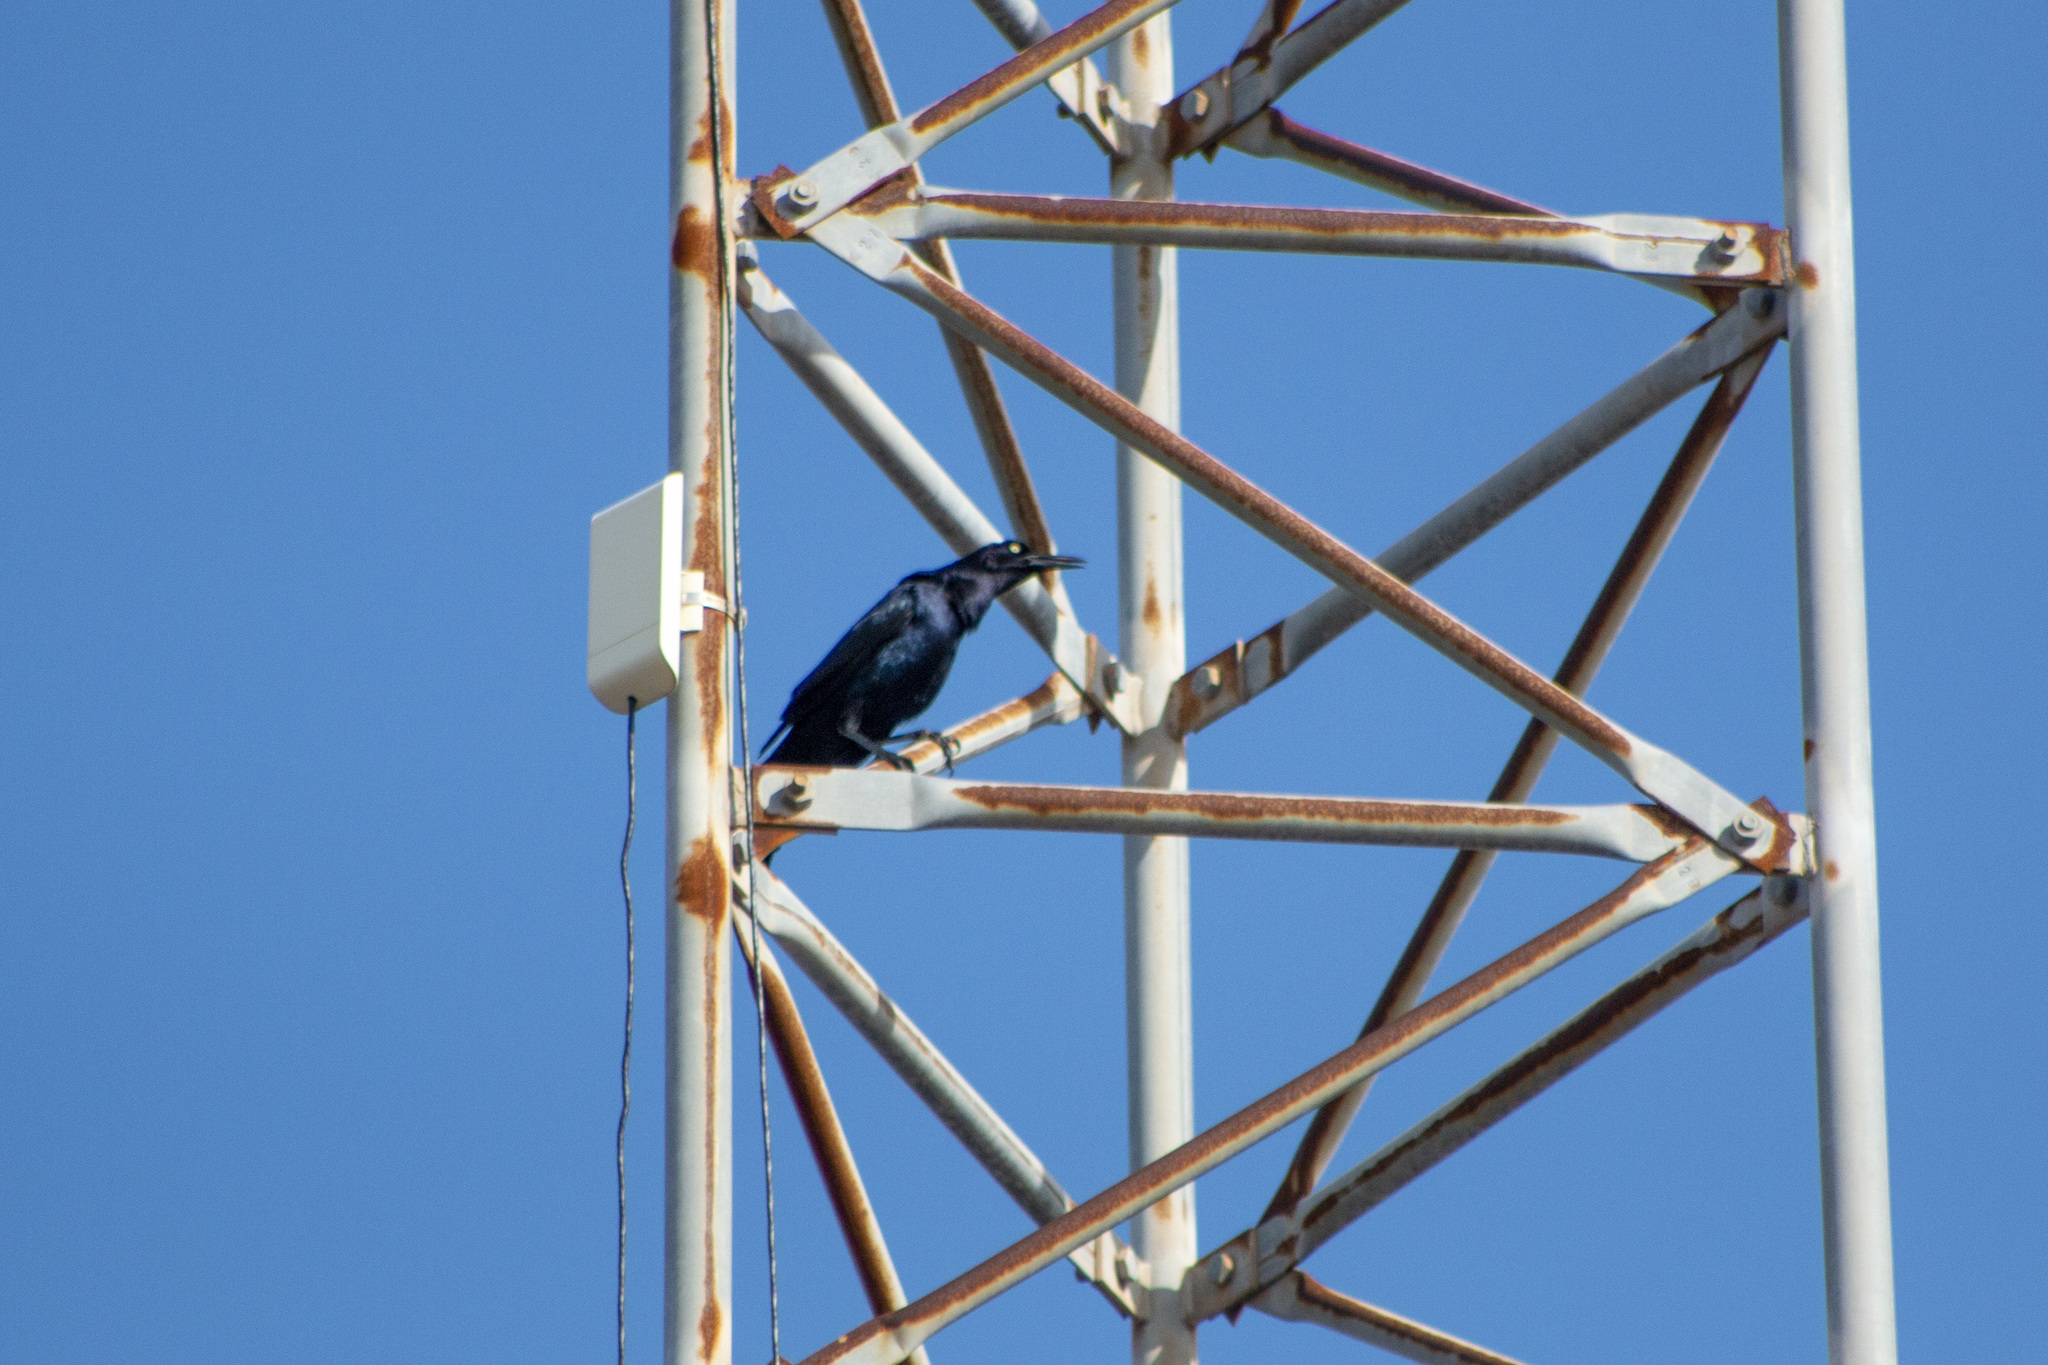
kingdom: Animalia
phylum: Chordata
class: Aves
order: Passeriformes
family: Icteridae
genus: Quiscalus
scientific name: Quiscalus mexicanus
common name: Great-tailed grackle
